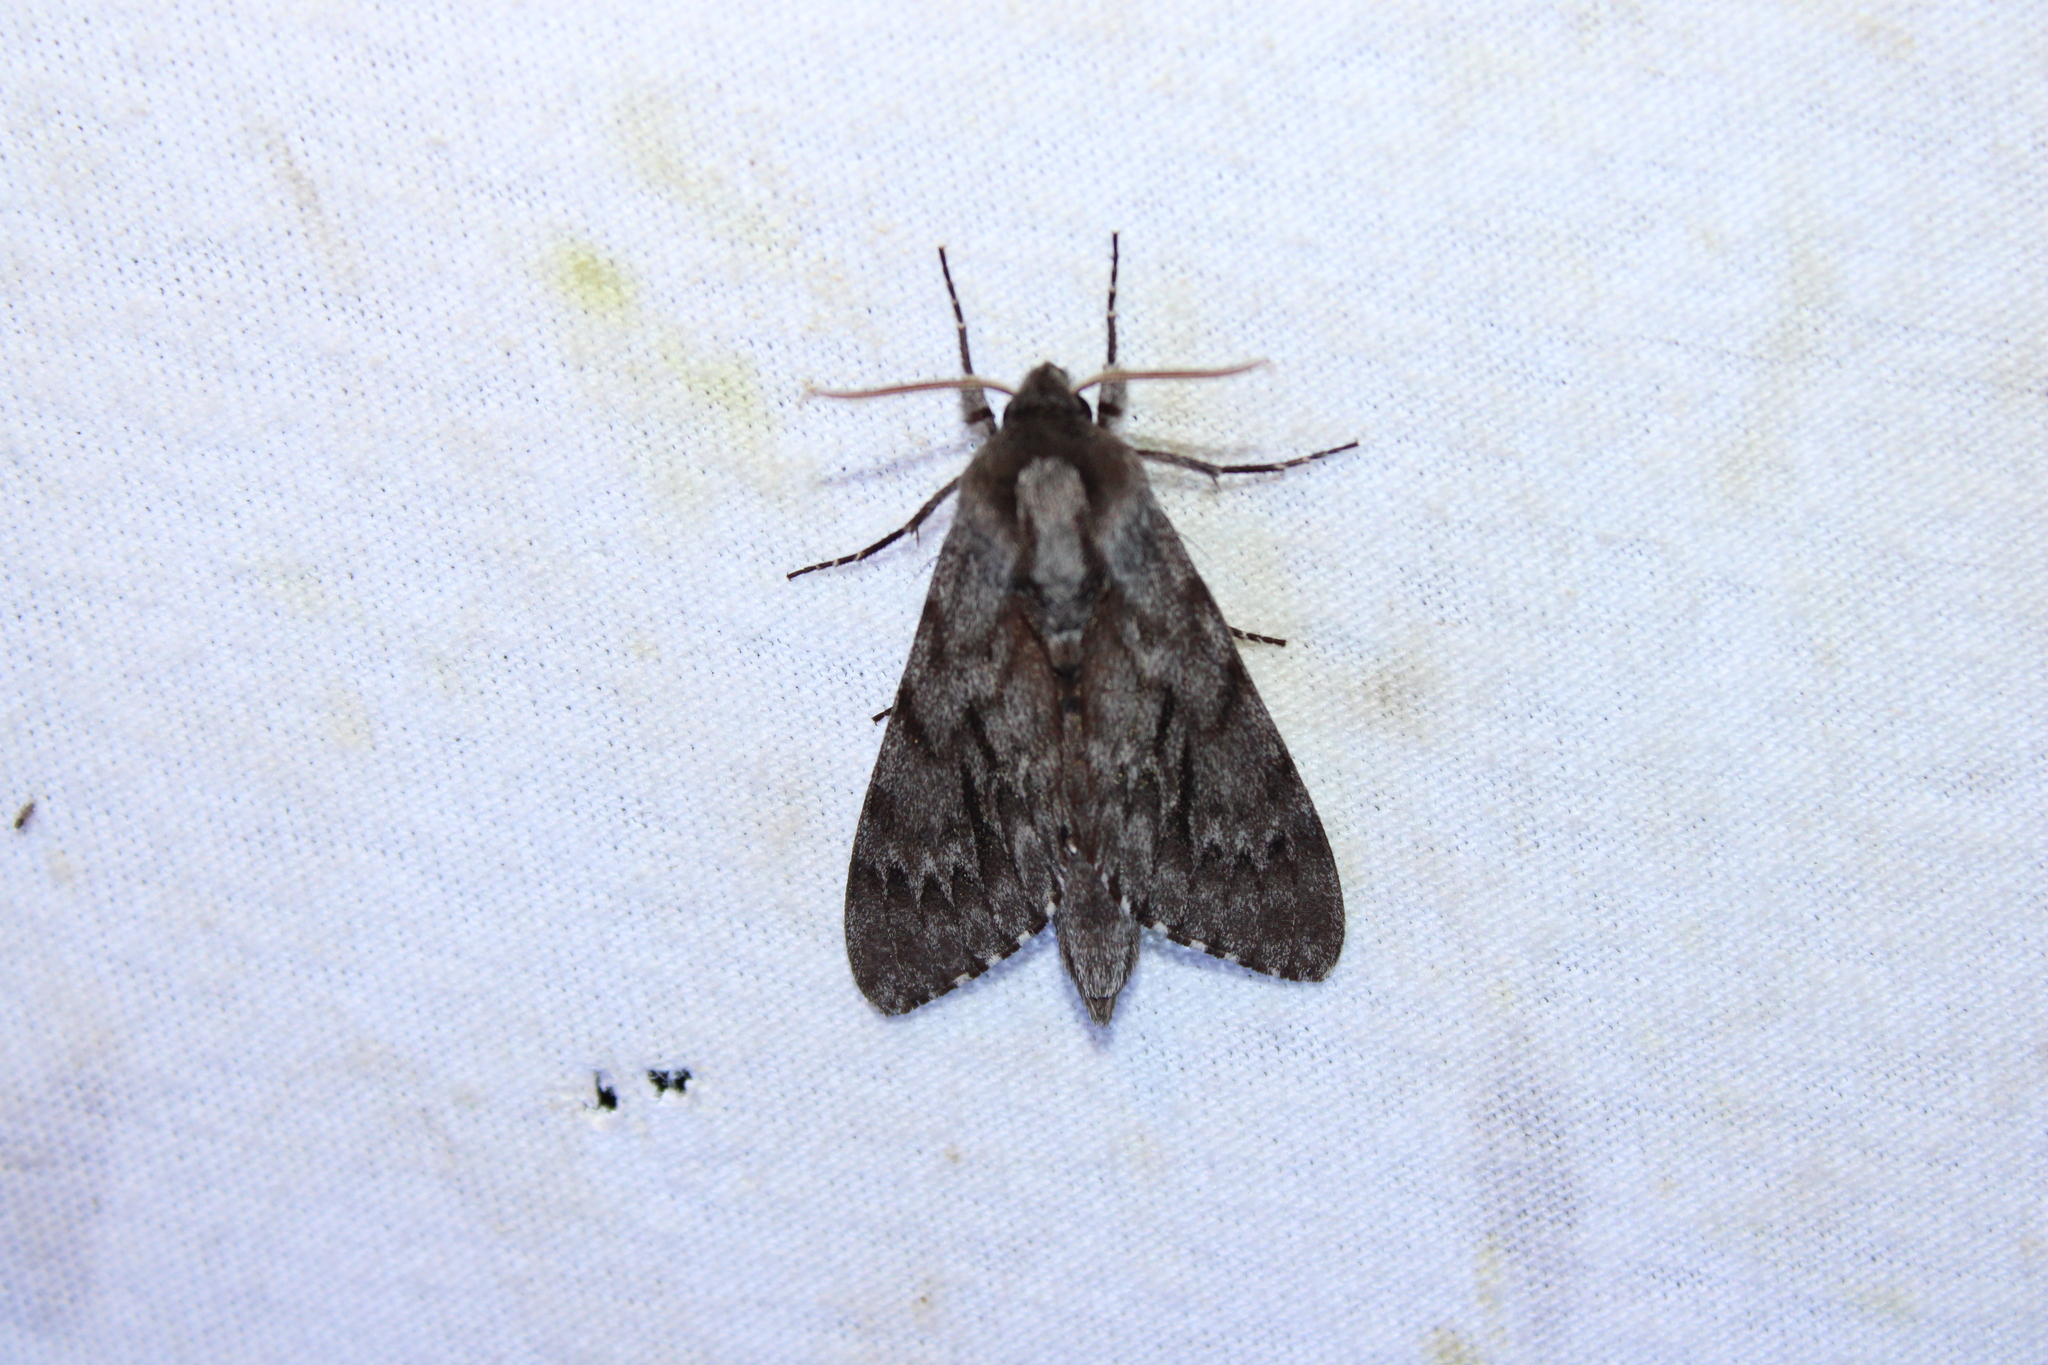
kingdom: Animalia
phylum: Arthropoda
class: Insecta
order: Lepidoptera
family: Sphingidae
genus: Lapara
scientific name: Lapara bombycoides
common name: Northern pine sphinx
